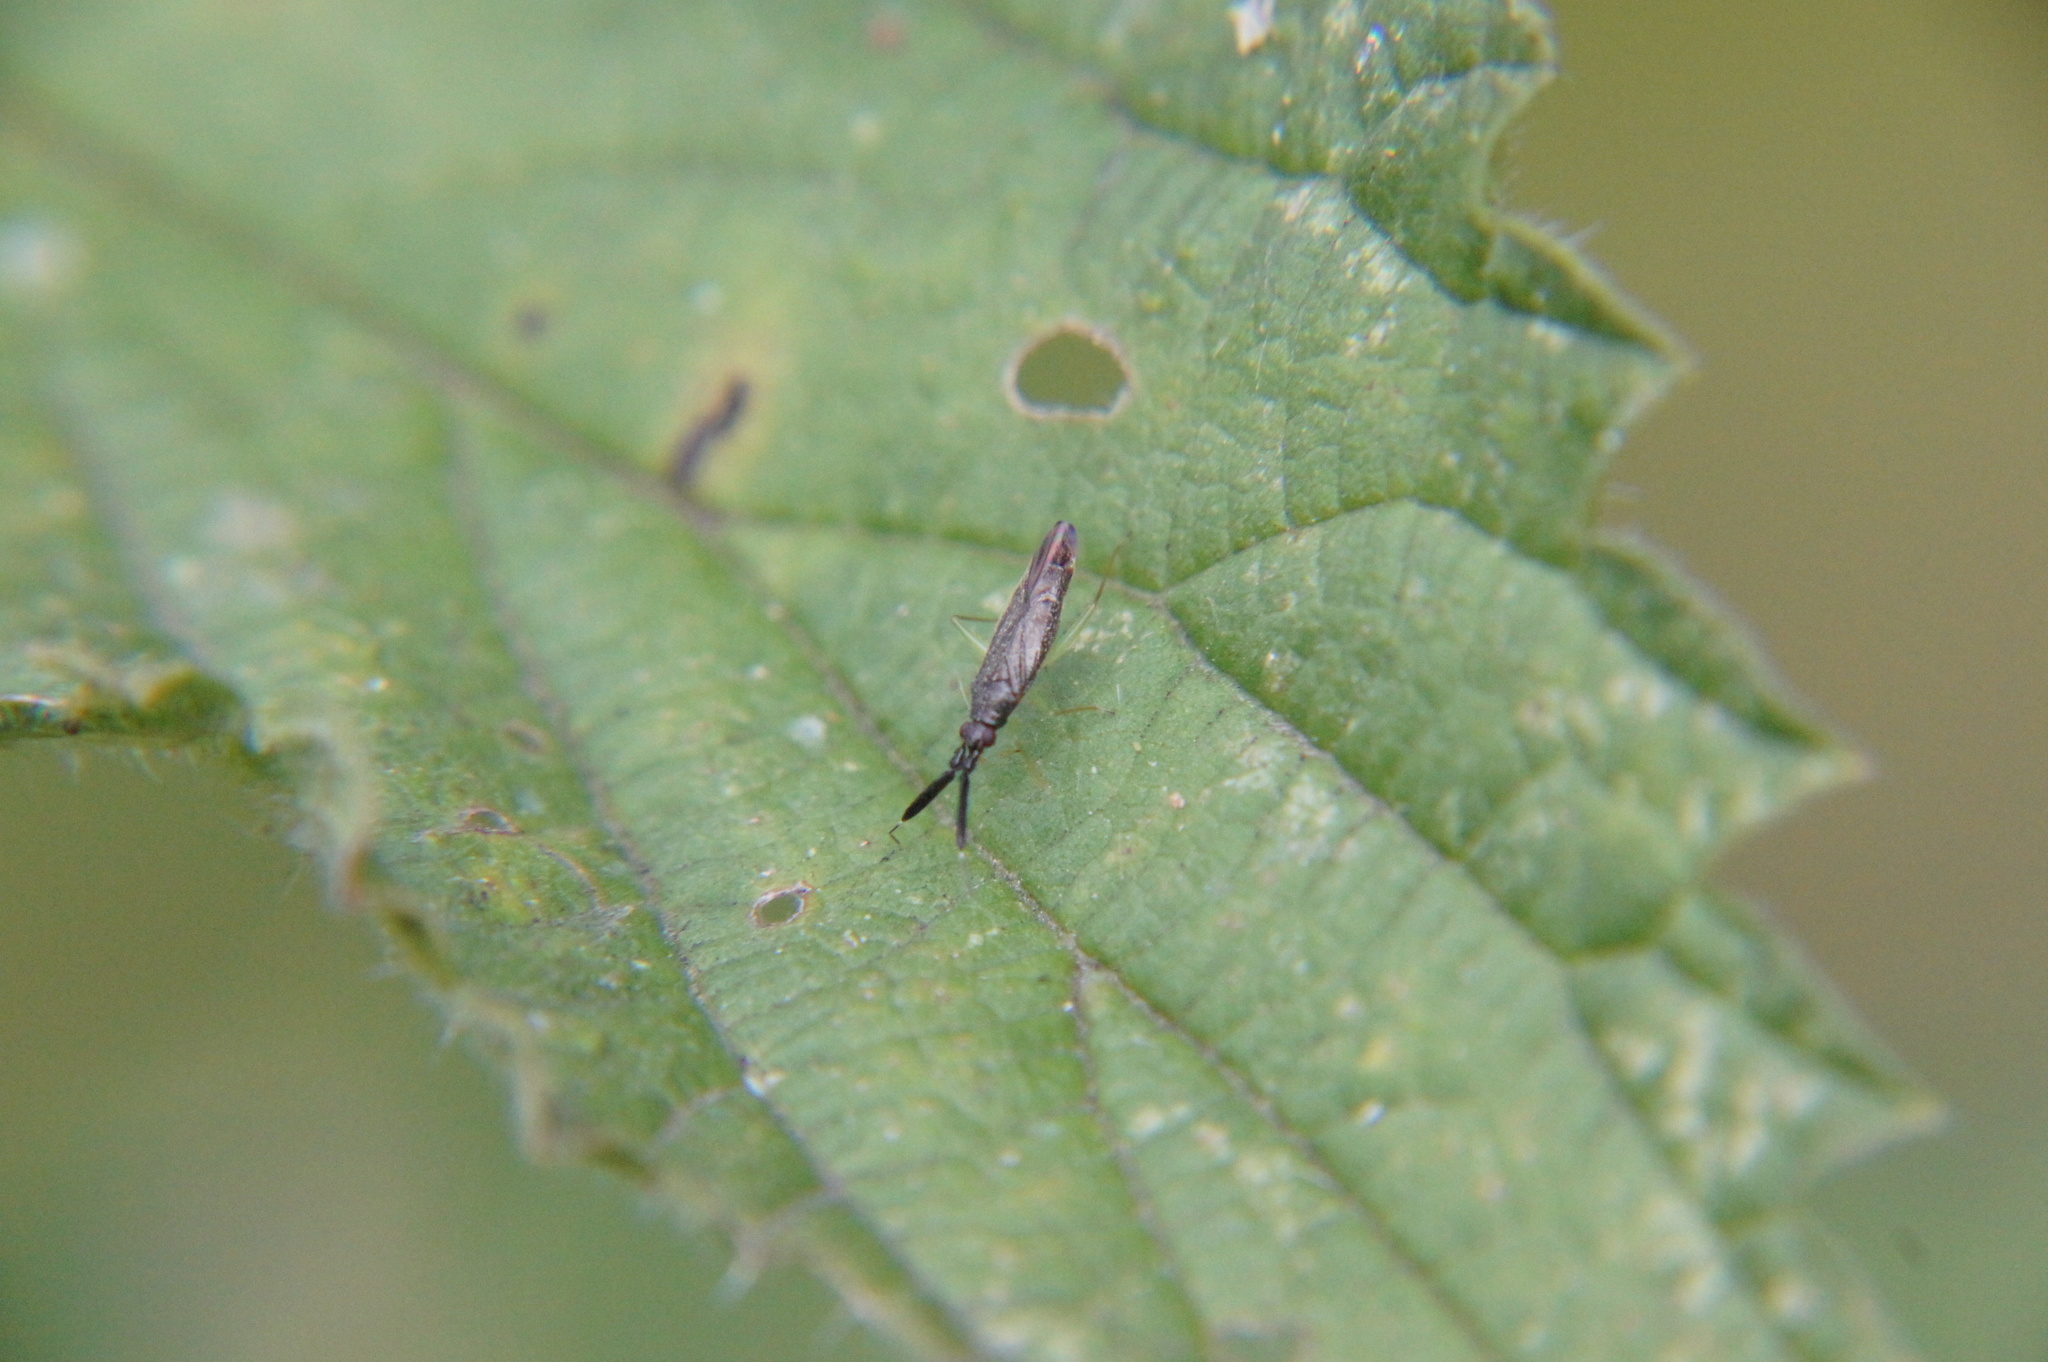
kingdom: Animalia
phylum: Arthropoda
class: Insecta
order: Hemiptera
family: Miridae
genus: Heterotoma
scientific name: Heterotoma planicornis
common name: Plant bug
